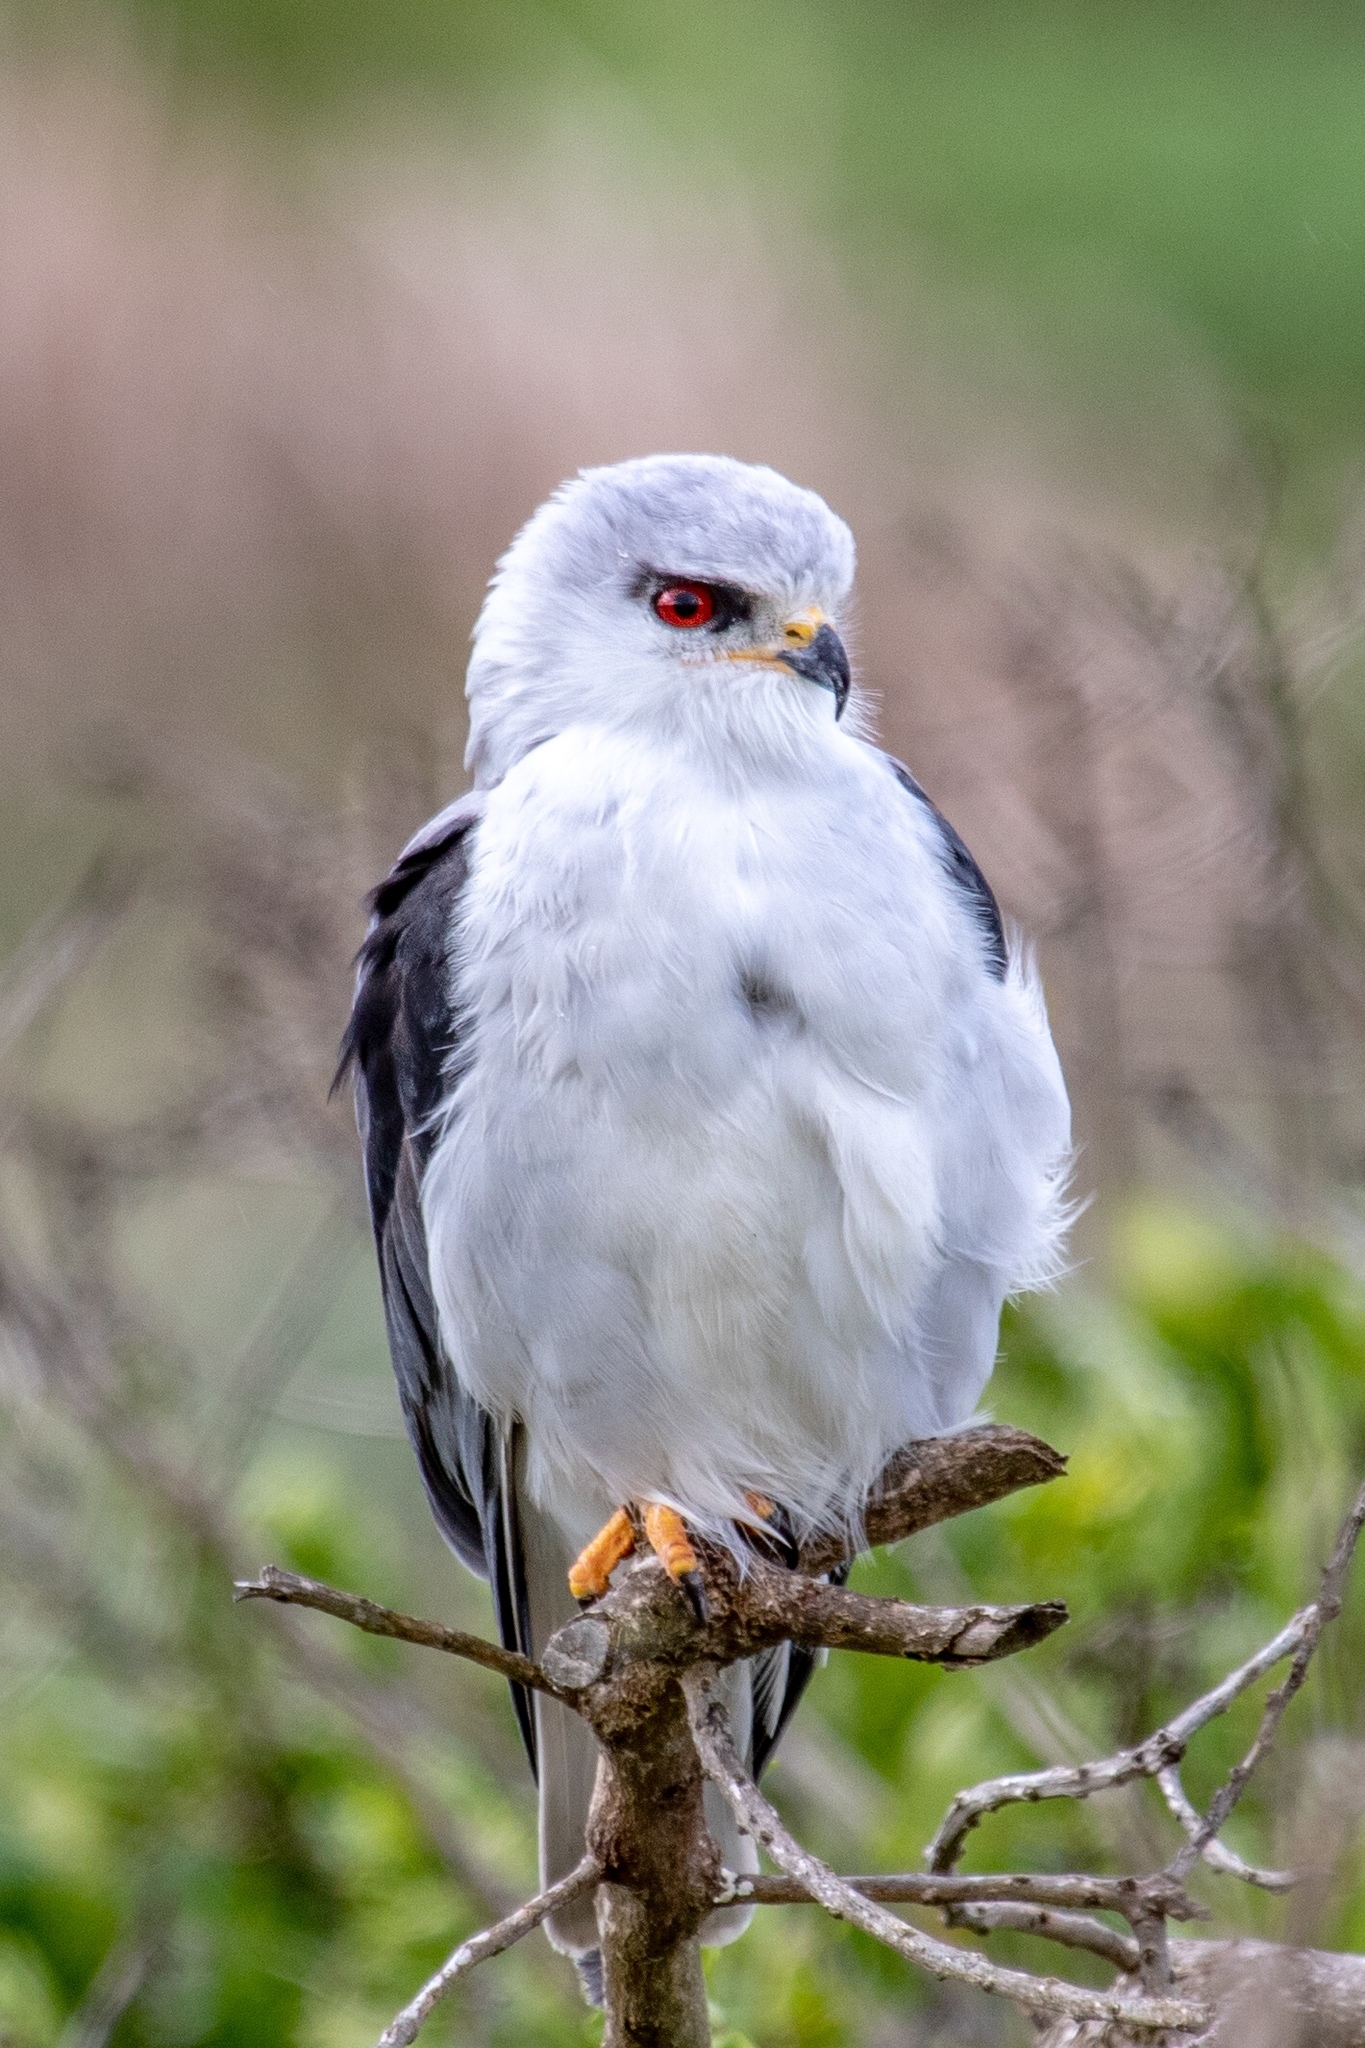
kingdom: Animalia
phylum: Chordata
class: Aves
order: Accipitriformes
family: Accipitridae
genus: Elanus
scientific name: Elanus caeruleus
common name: Black-winged kite
